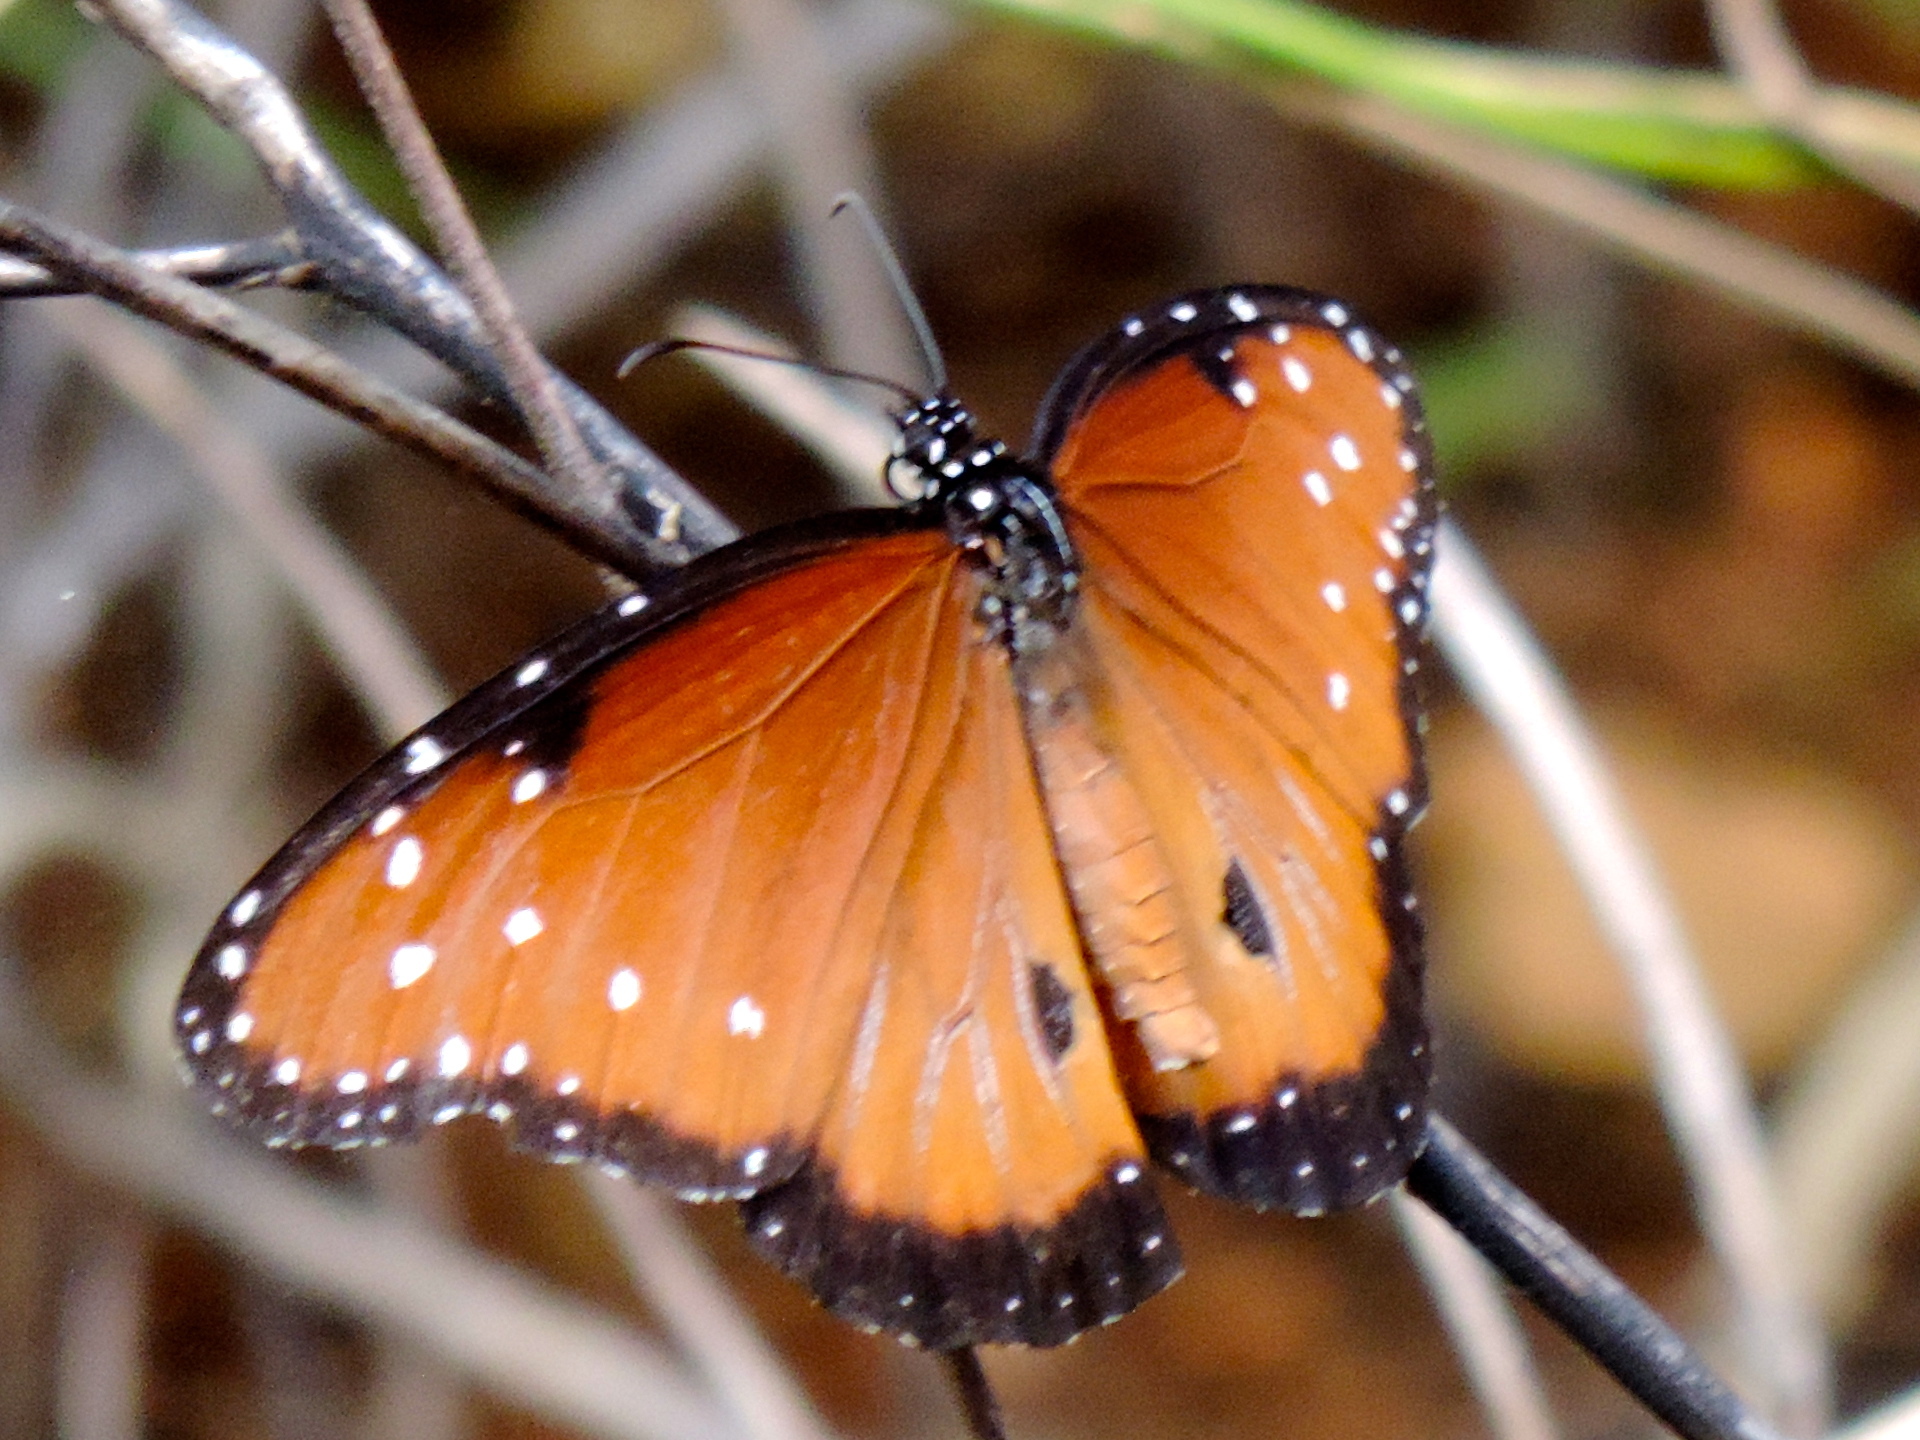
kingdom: Animalia
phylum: Arthropoda
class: Insecta
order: Lepidoptera
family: Nymphalidae
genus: Danaus
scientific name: Danaus gilippus
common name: Queen
